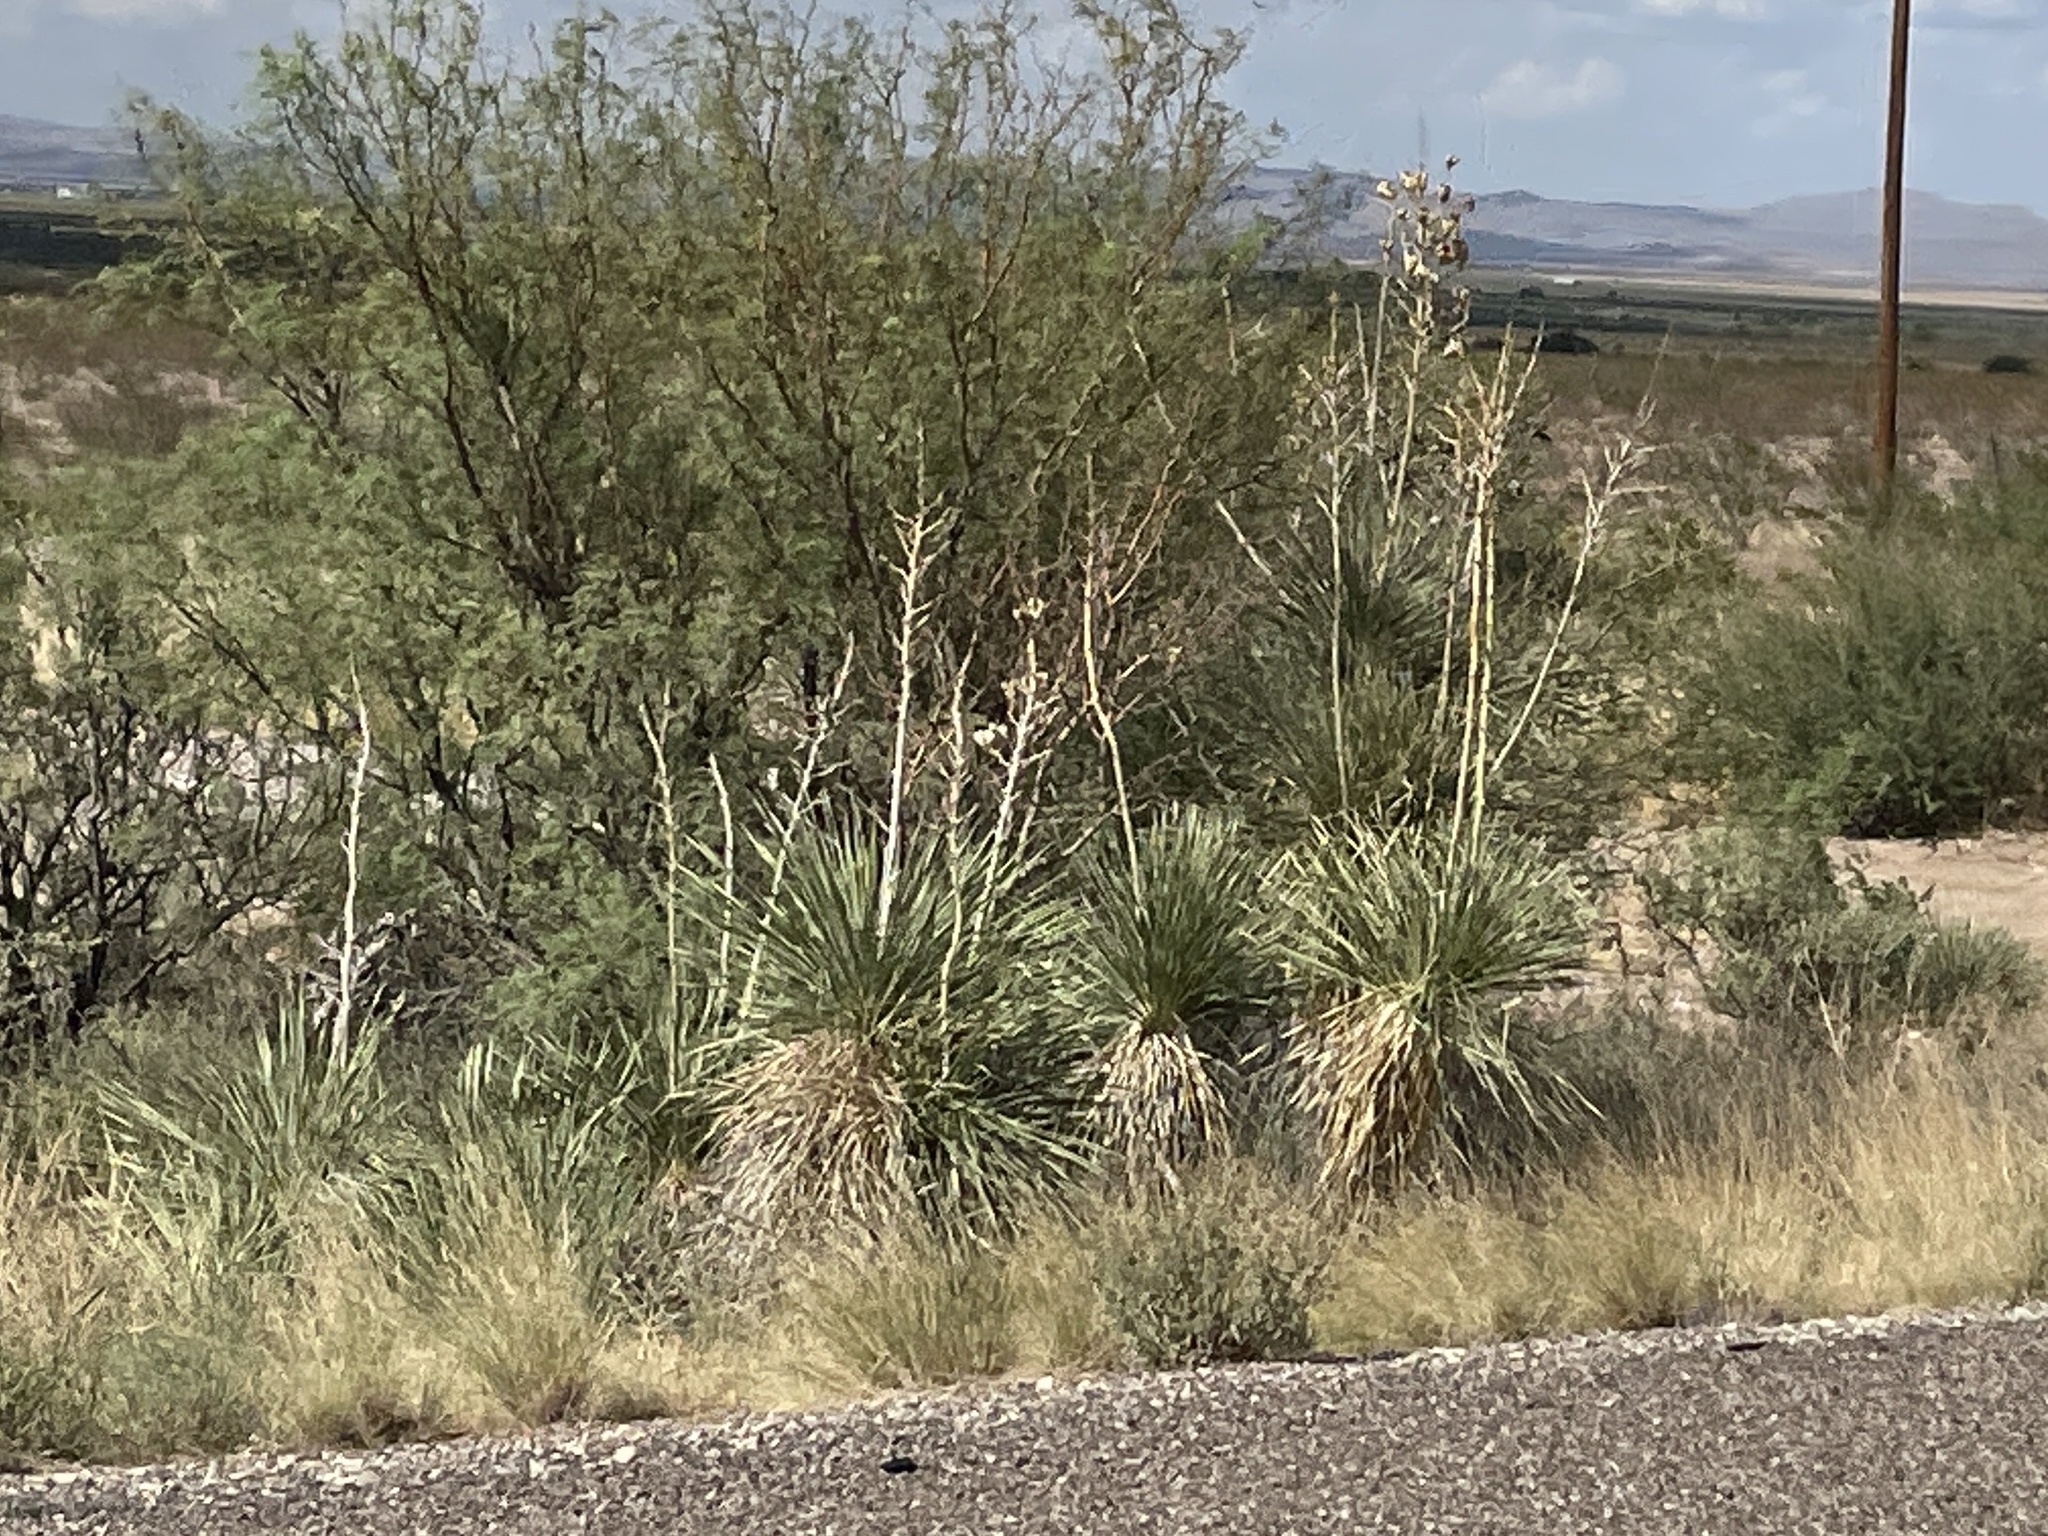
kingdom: Plantae
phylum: Tracheophyta
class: Liliopsida
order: Asparagales
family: Asparagaceae
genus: Yucca
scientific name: Yucca elata
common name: Palmella
